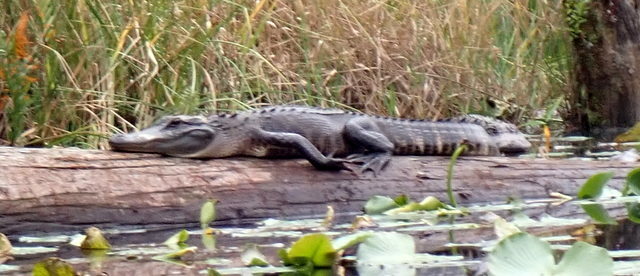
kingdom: Animalia
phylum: Chordata
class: Crocodylia
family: Alligatoridae
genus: Alligator
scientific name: Alligator mississippiensis
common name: American alligator
